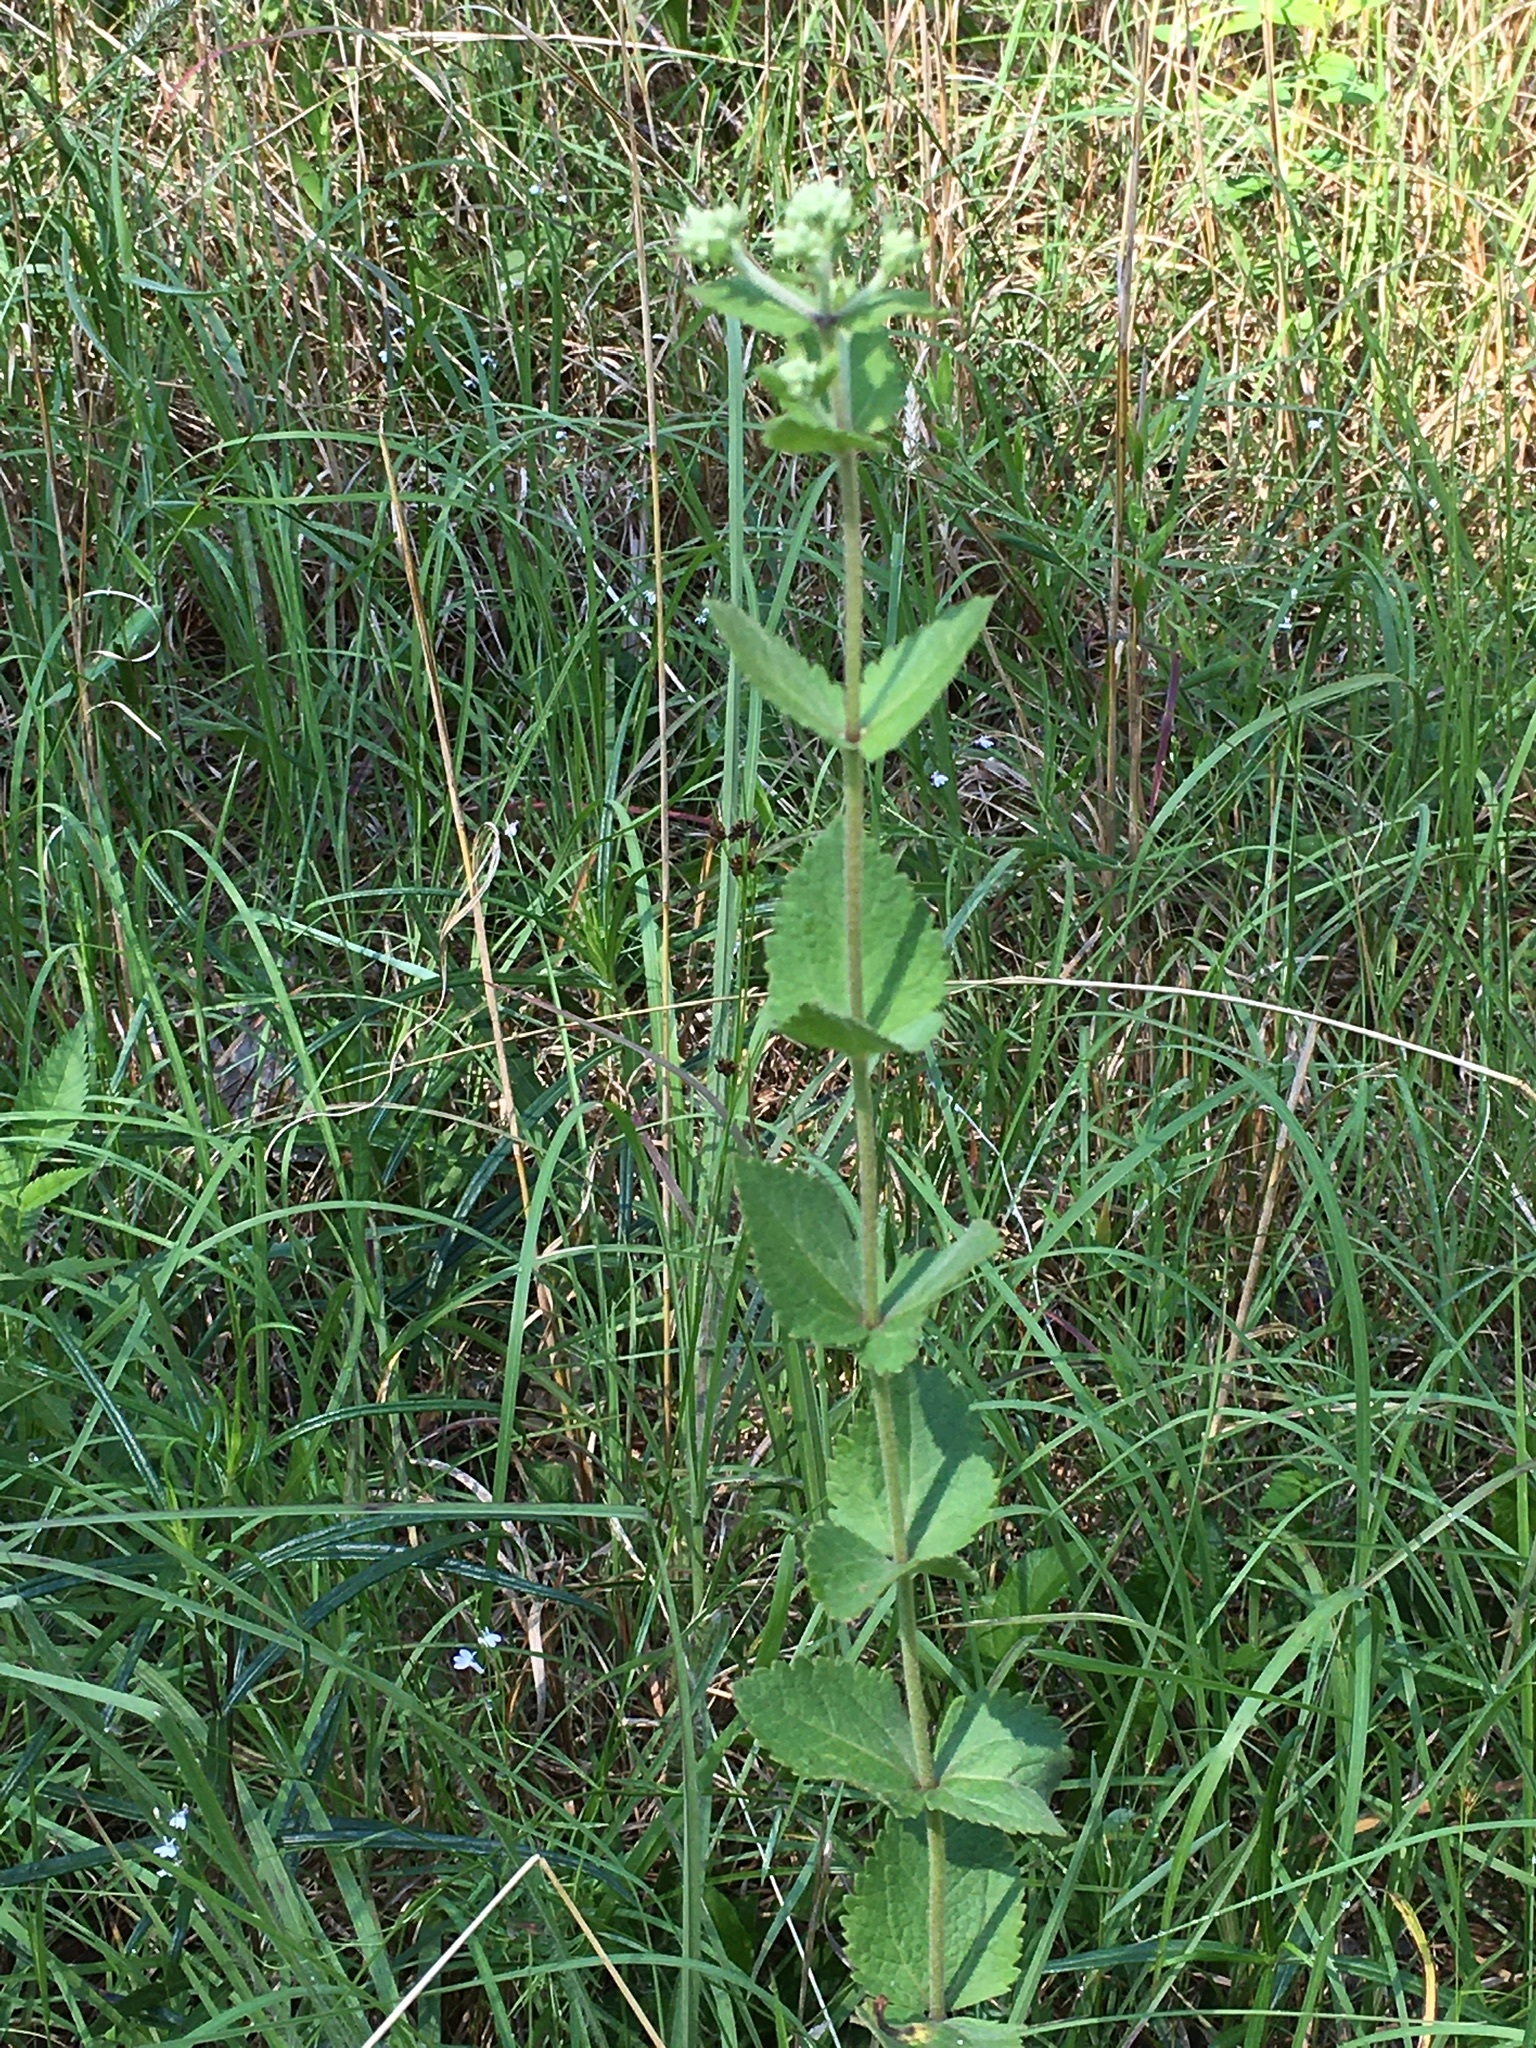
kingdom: Plantae
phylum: Tracheophyta
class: Magnoliopsida
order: Asterales
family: Asteraceae
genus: Eupatorium
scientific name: Eupatorium rotundifolium
